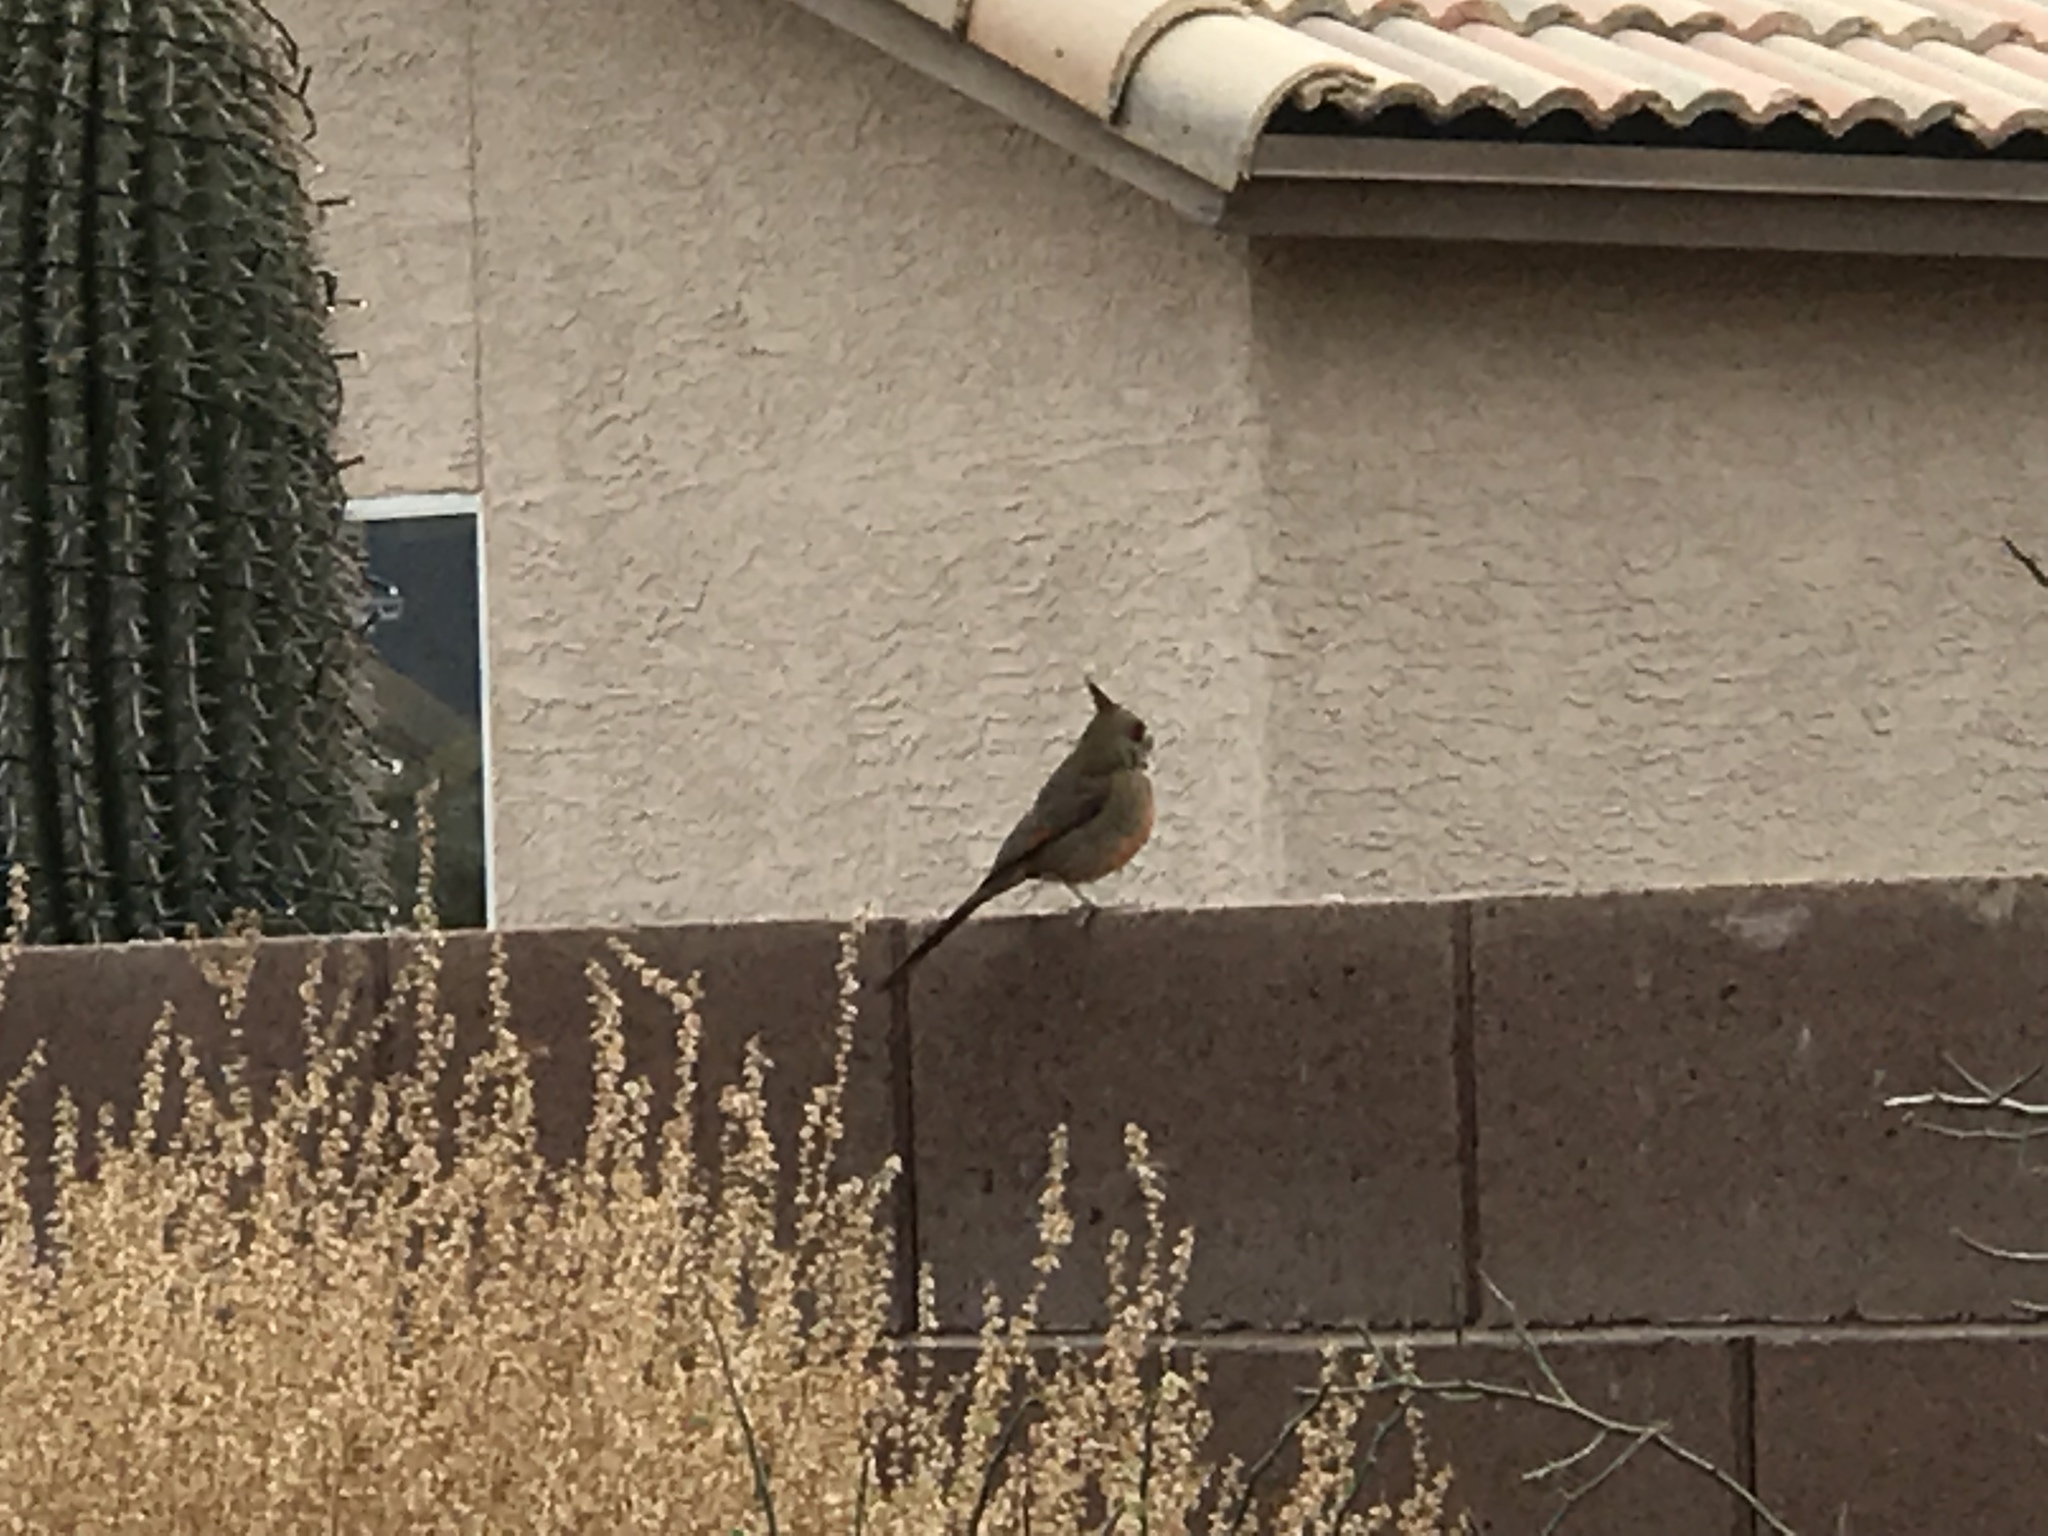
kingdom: Animalia
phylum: Chordata
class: Aves
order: Passeriformes
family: Cardinalidae
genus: Cardinalis
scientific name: Cardinalis sinuatus
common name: Pyrrhuloxia
